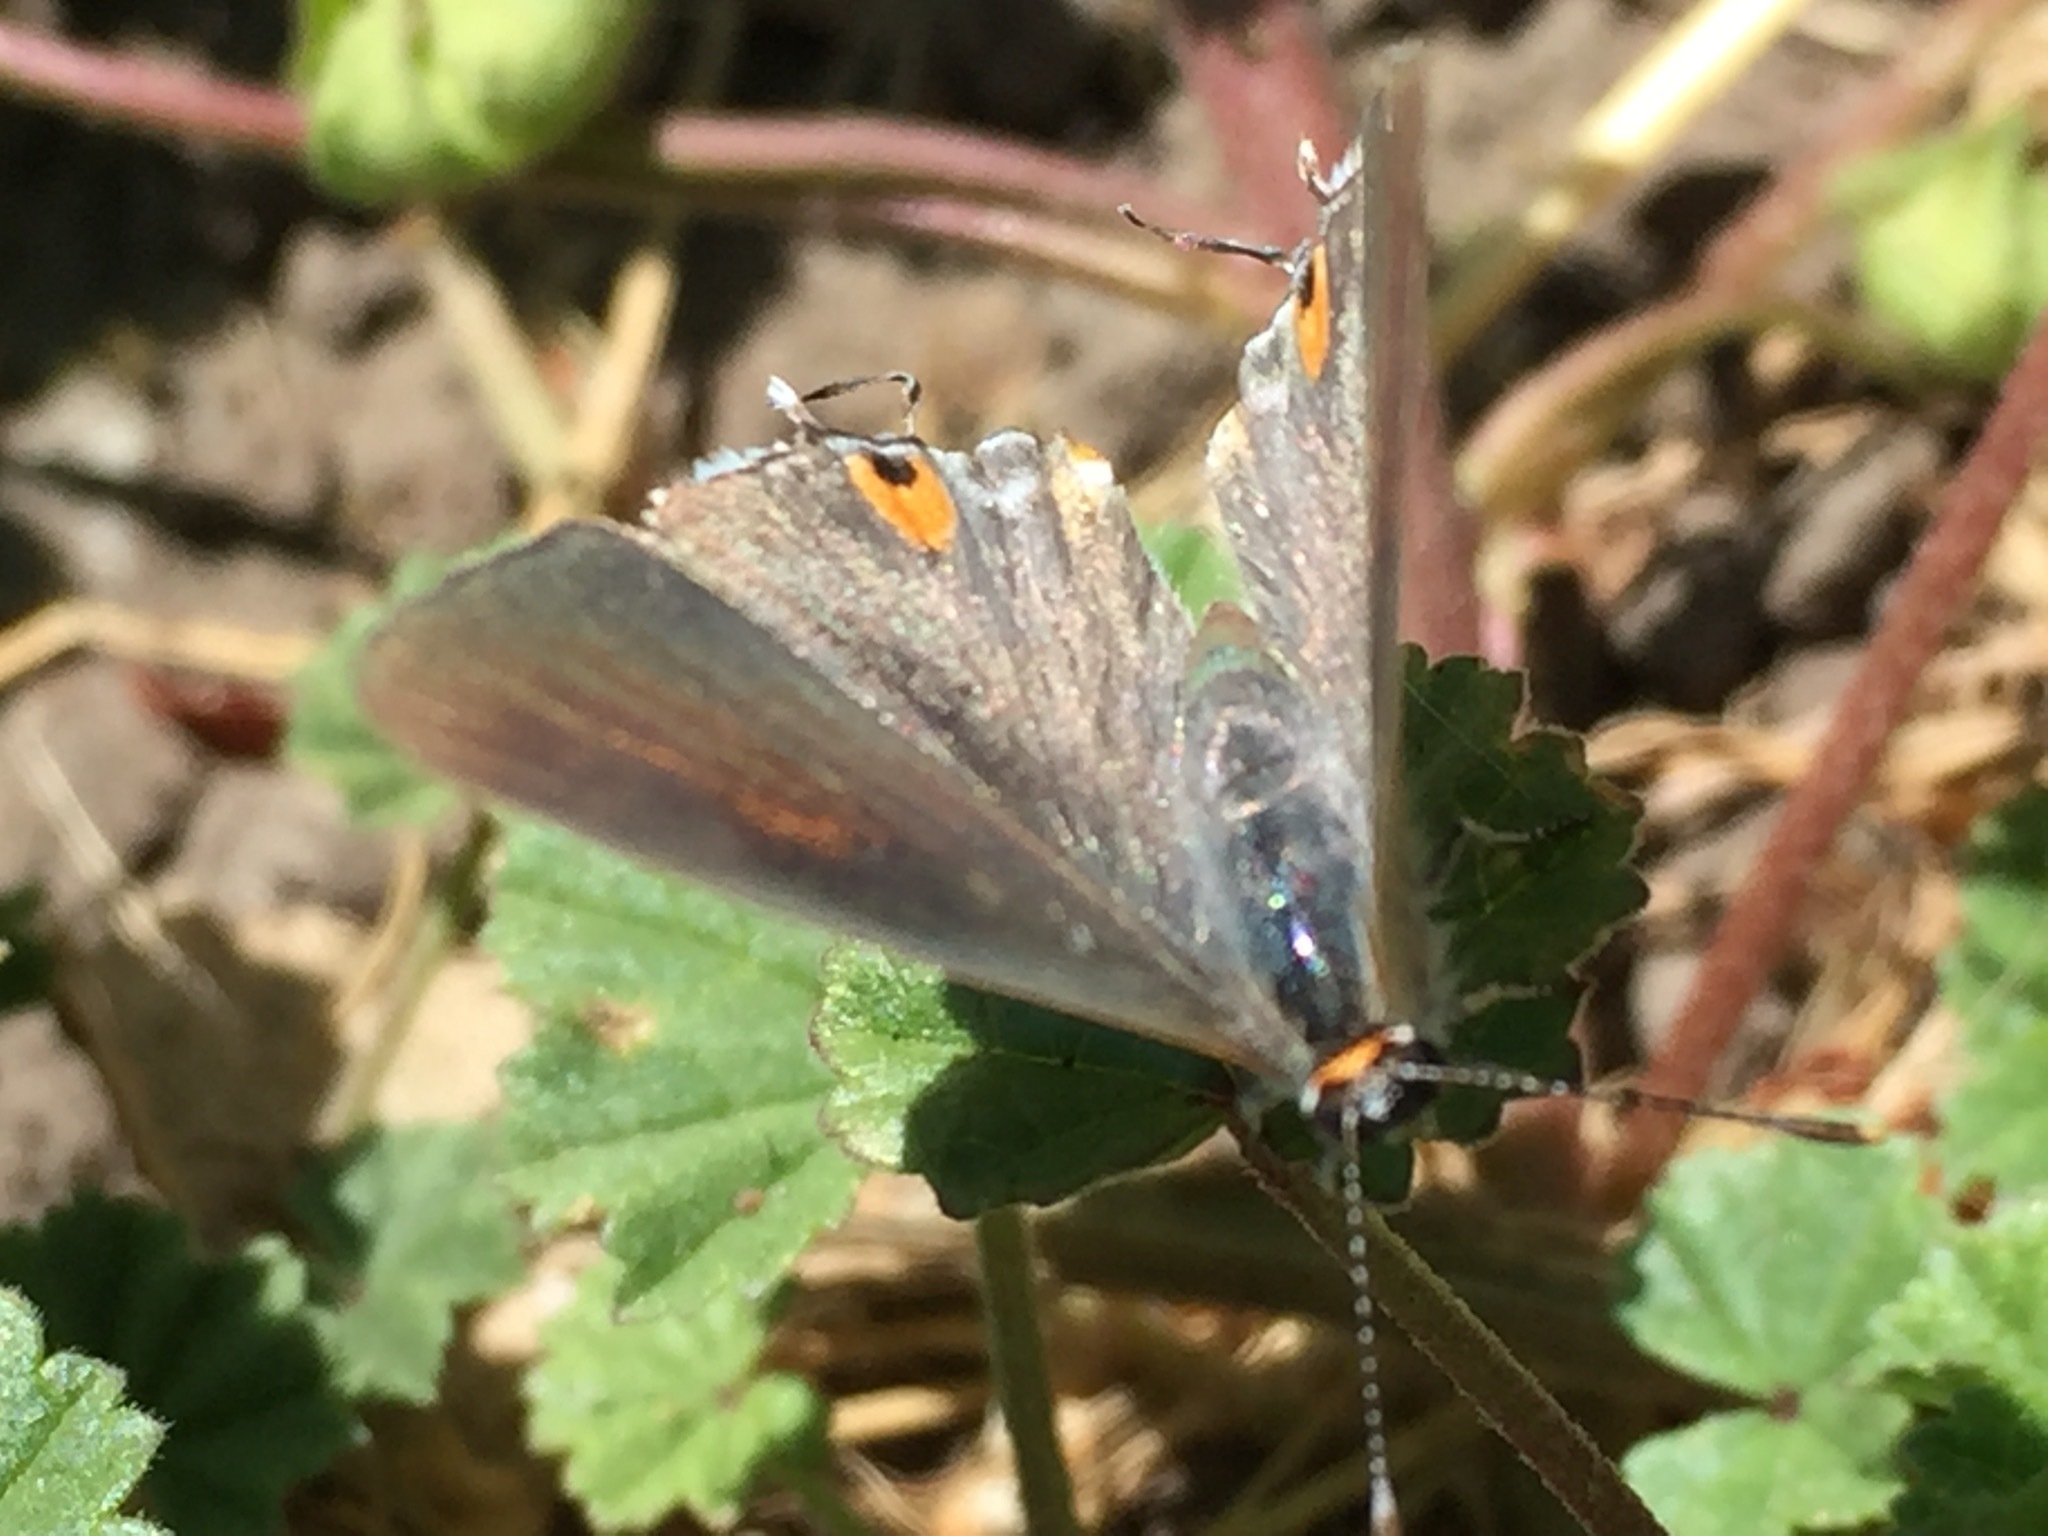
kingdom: Animalia
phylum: Arthropoda
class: Insecta
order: Lepidoptera
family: Lycaenidae
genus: Strymon
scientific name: Strymon melinus
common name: Gray hairstreak
